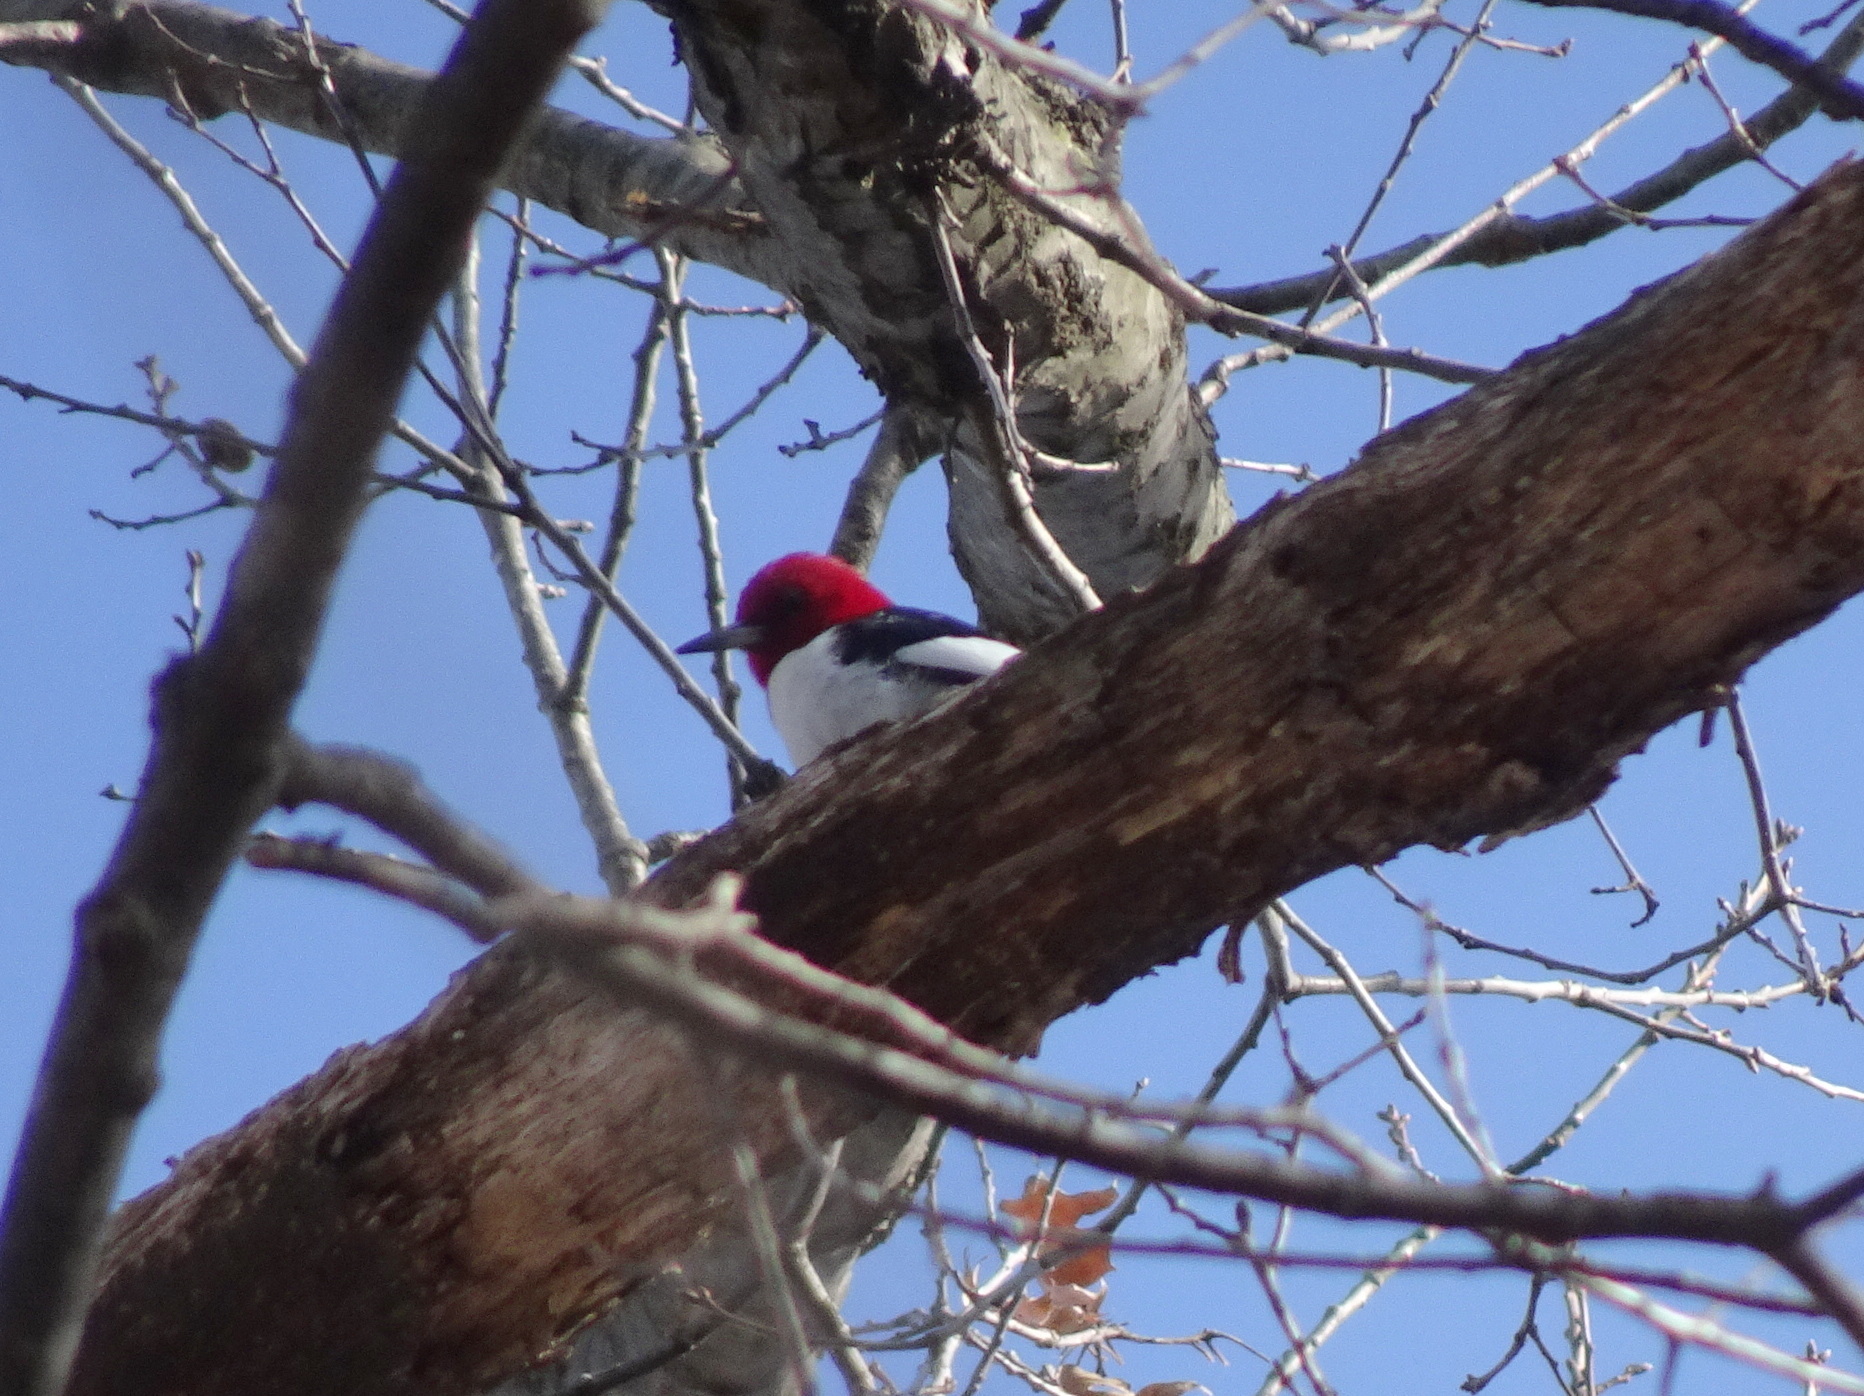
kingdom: Animalia
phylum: Chordata
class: Aves
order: Piciformes
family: Picidae
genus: Melanerpes
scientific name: Melanerpes erythrocephalus
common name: Red-headed woodpecker
